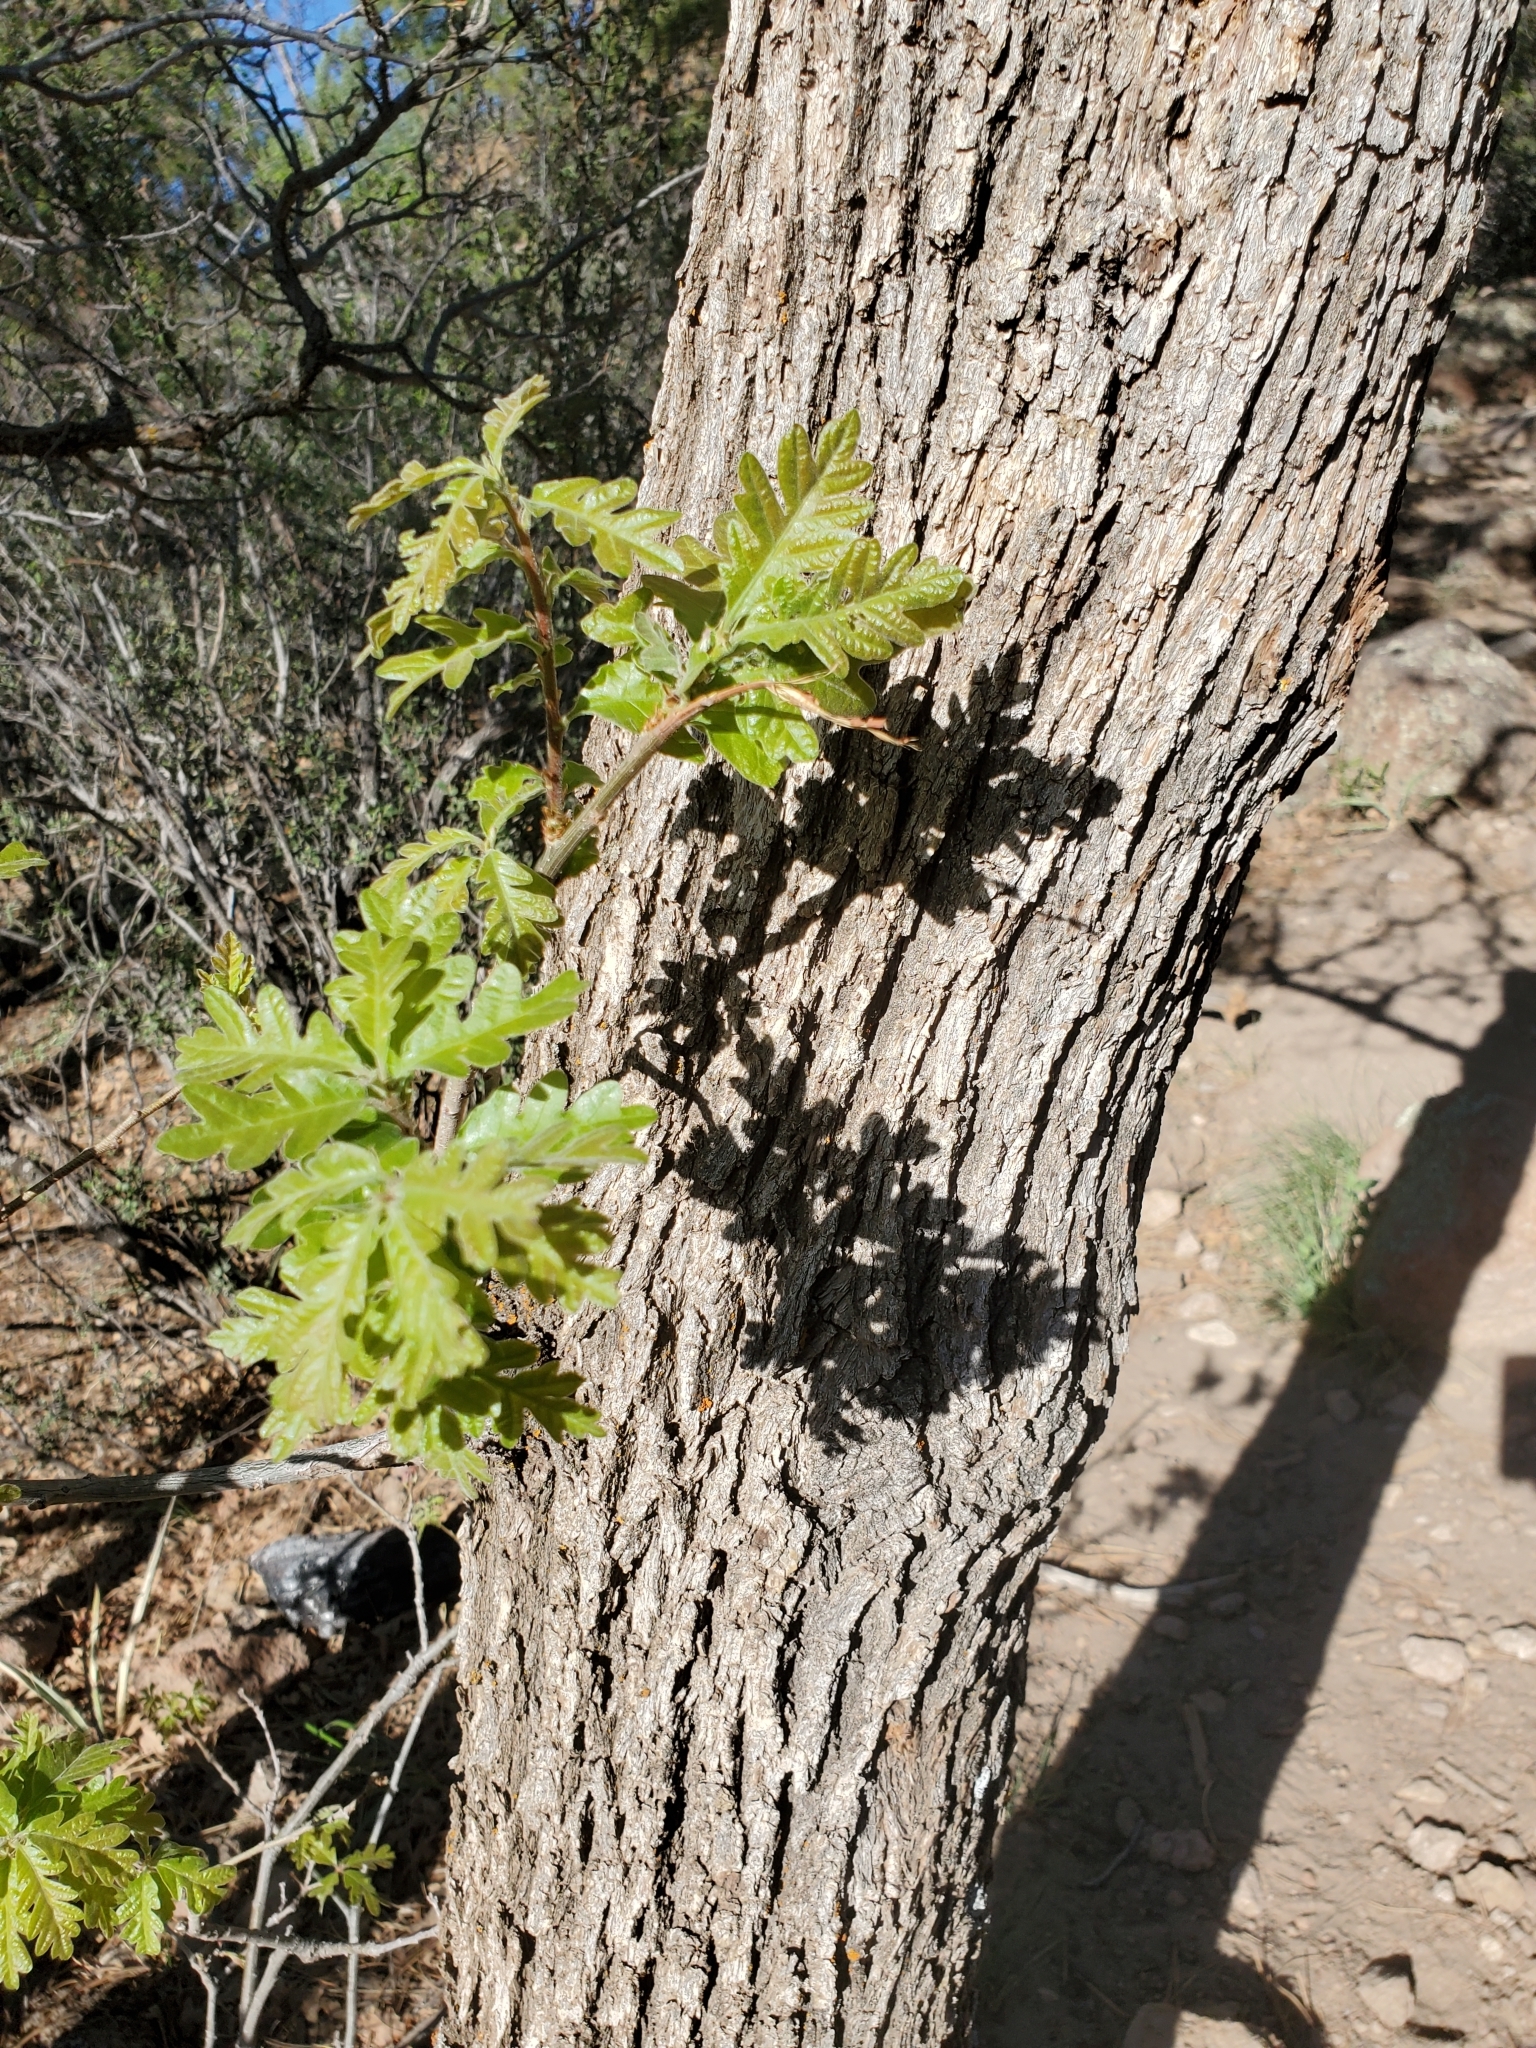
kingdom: Plantae
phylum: Tracheophyta
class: Magnoliopsida
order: Fagales
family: Fagaceae
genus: Quercus
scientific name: Quercus gambelii
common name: Gambel oak
